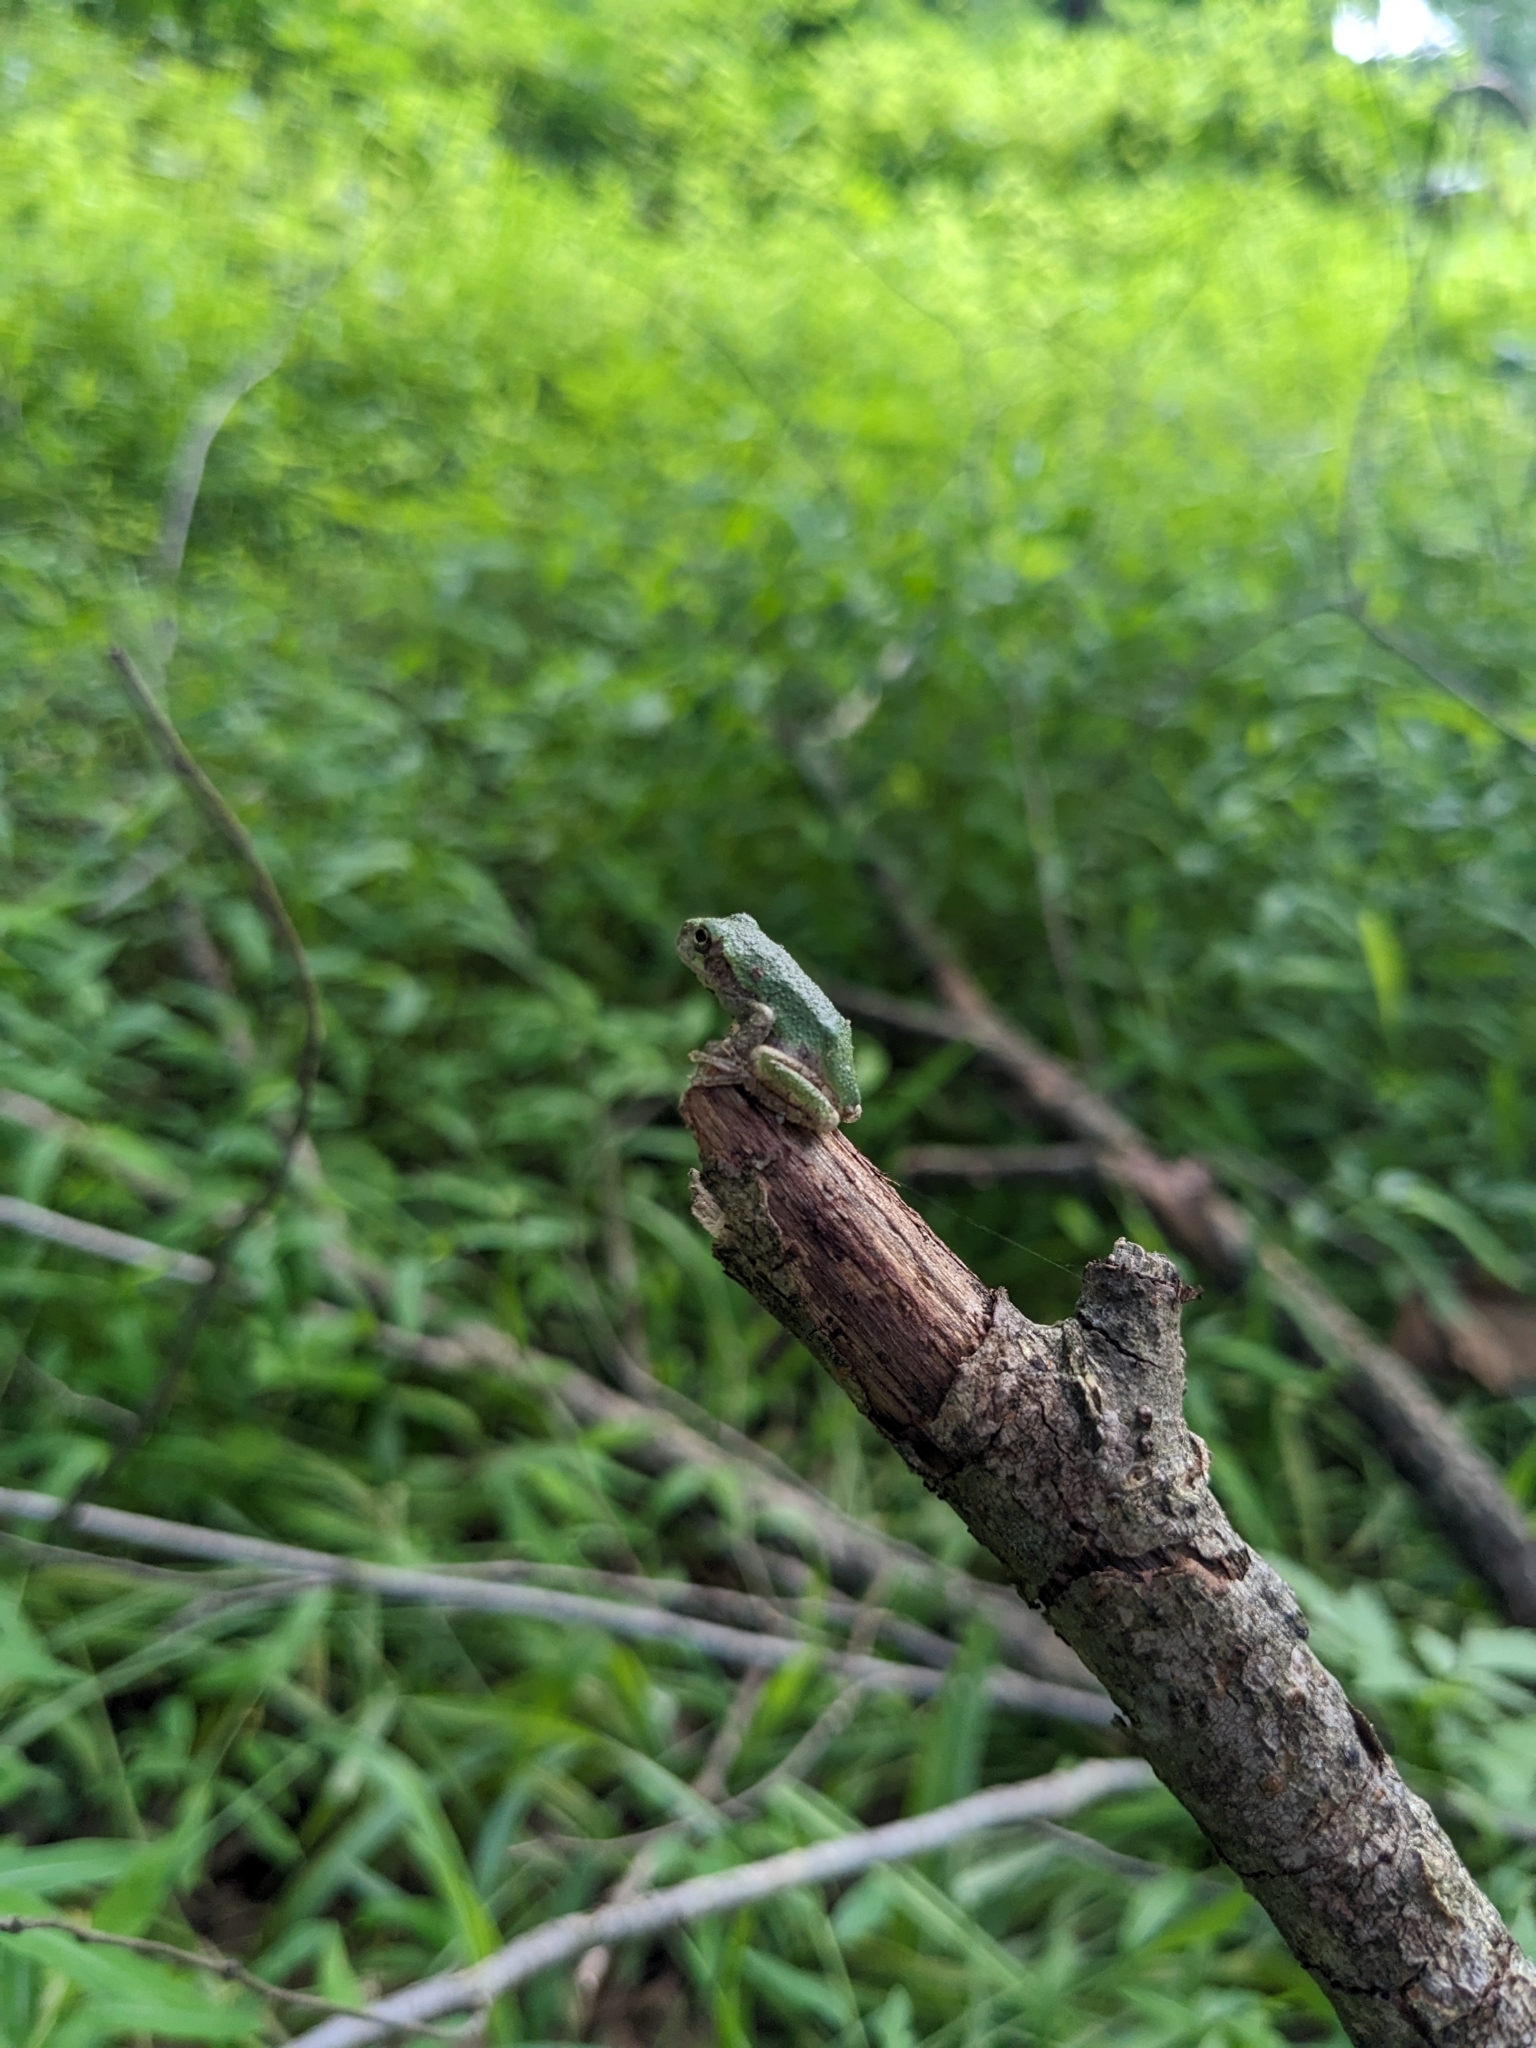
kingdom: Animalia
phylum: Chordata
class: Amphibia
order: Anura
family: Hylidae
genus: Dryophytes
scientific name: Dryophytes versicolor
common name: Gray treefrog
